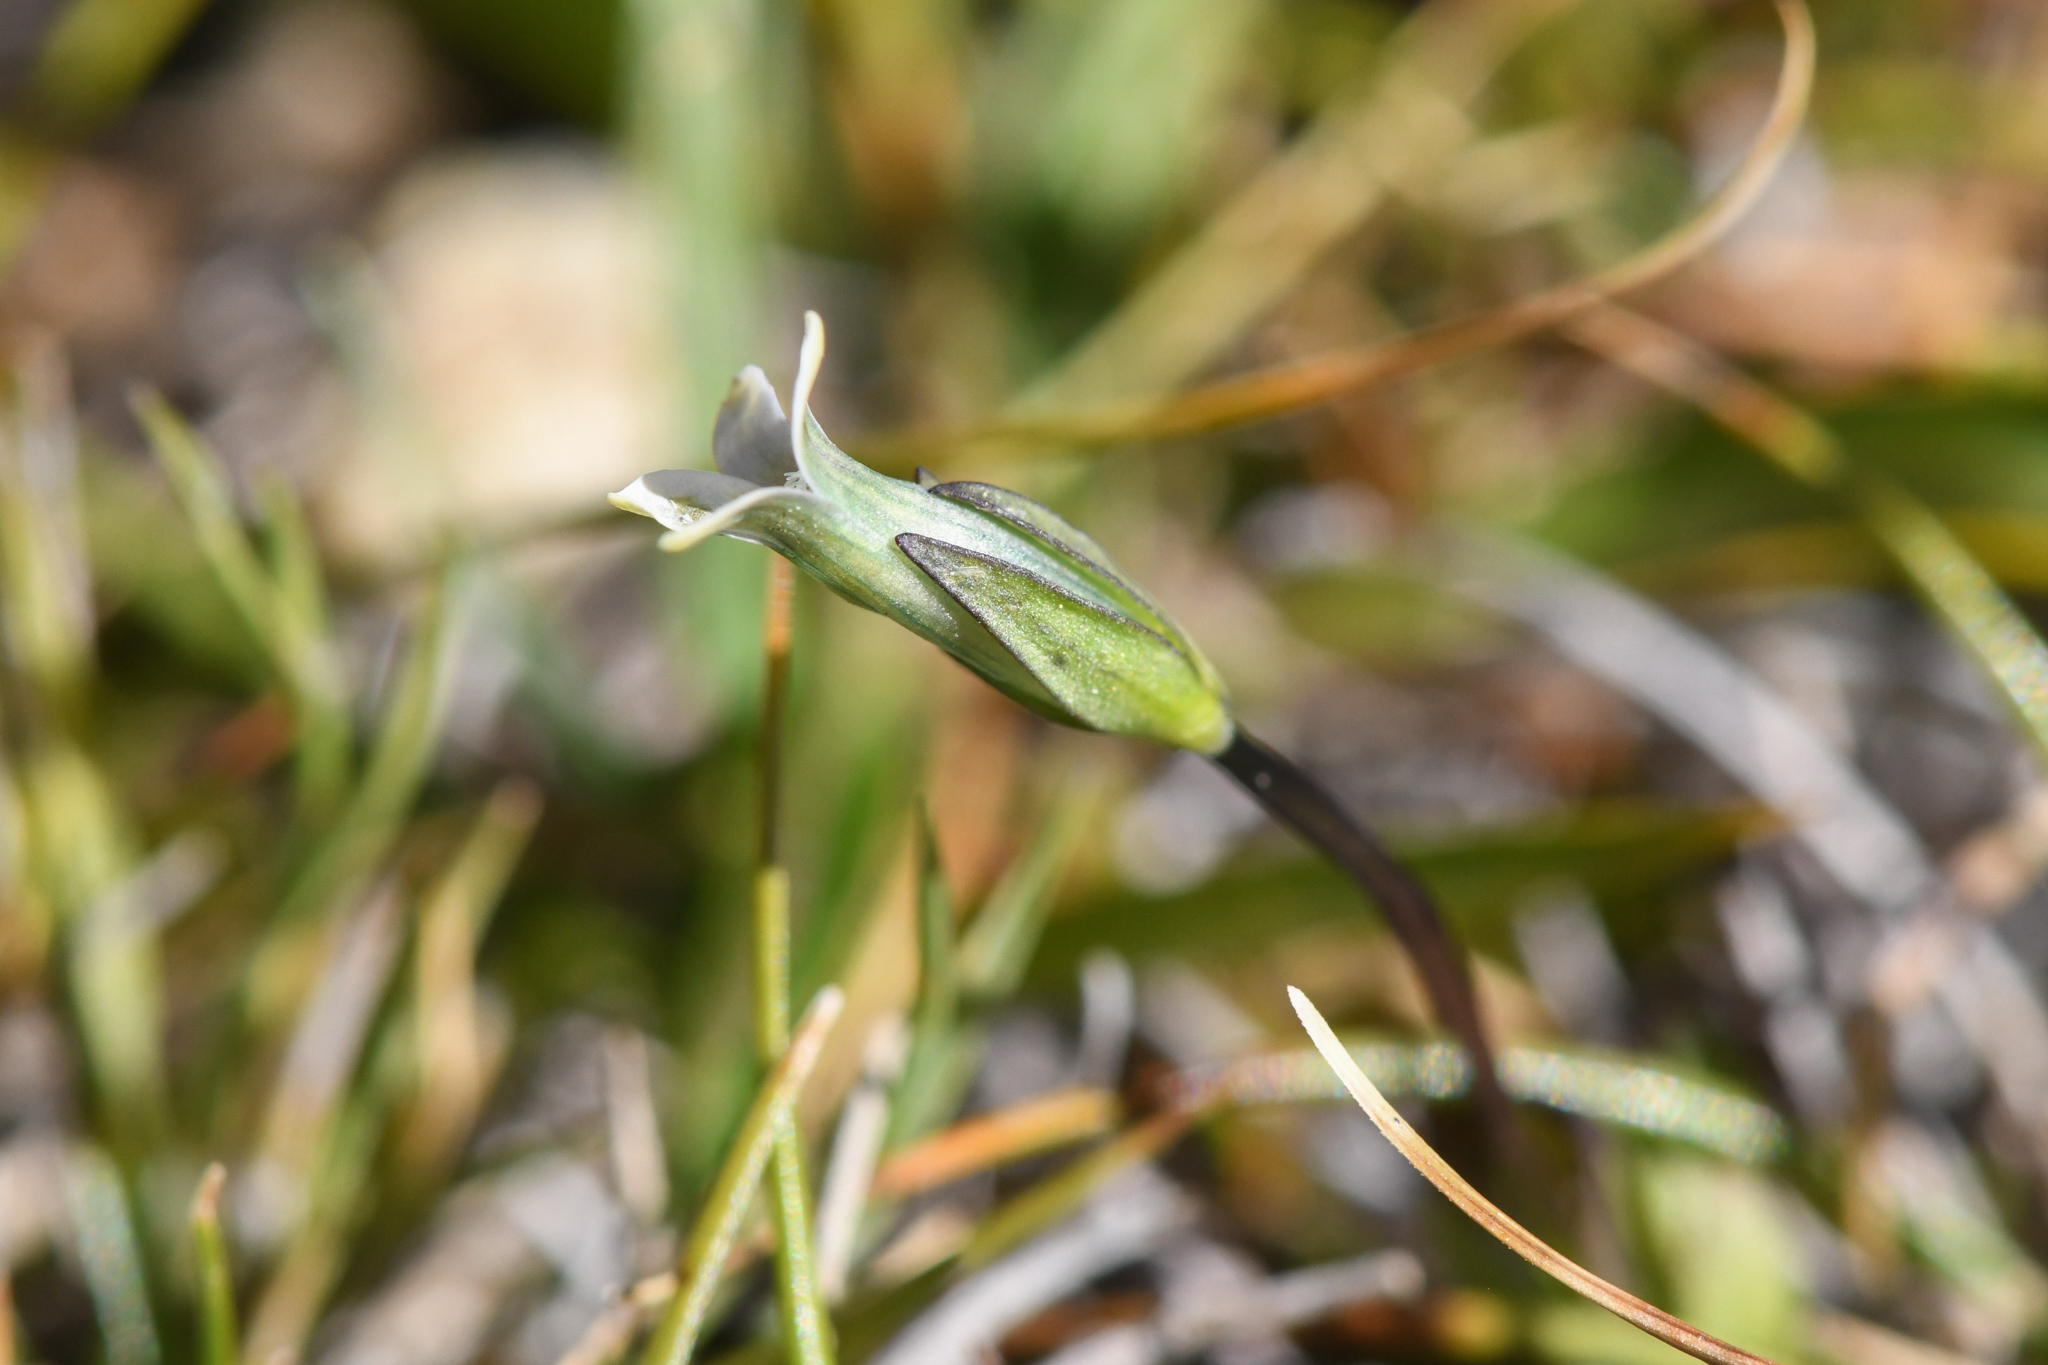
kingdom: Plantae
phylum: Tracheophyta
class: Magnoliopsida
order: Gentianales
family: Gentianaceae
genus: Comastoma
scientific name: Comastoma tenellum
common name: Dane's dwarf gentian
